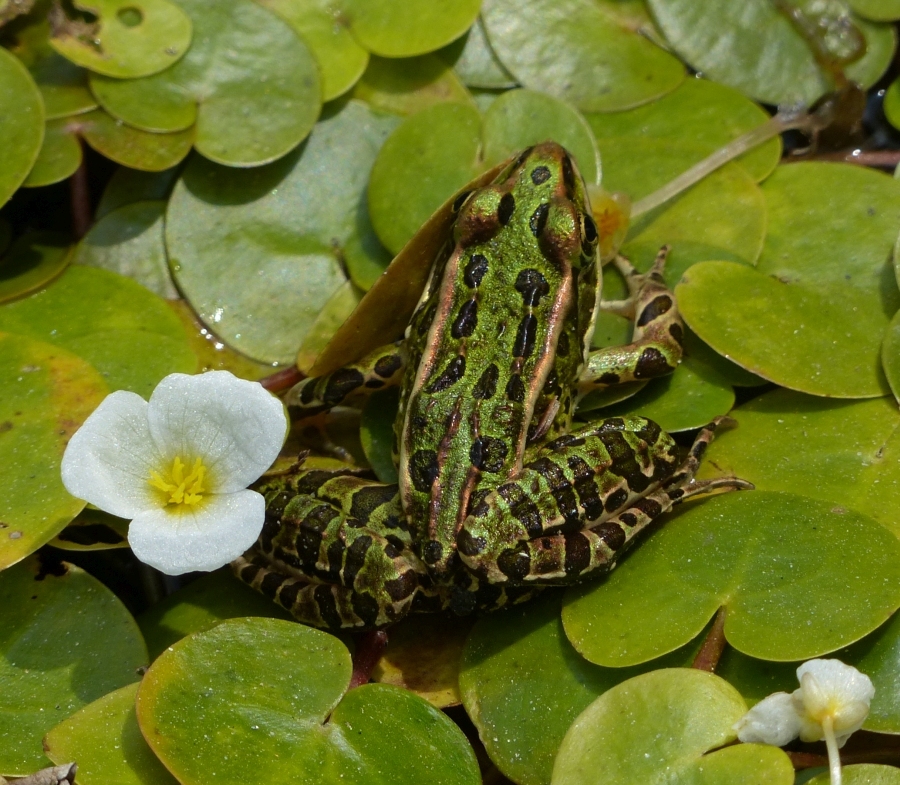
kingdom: Animalia
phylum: Chordata
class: Amphibia
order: Anura
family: Ranidae
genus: Lithobates
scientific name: Lithobates pipiens
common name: Northern leopard frog
